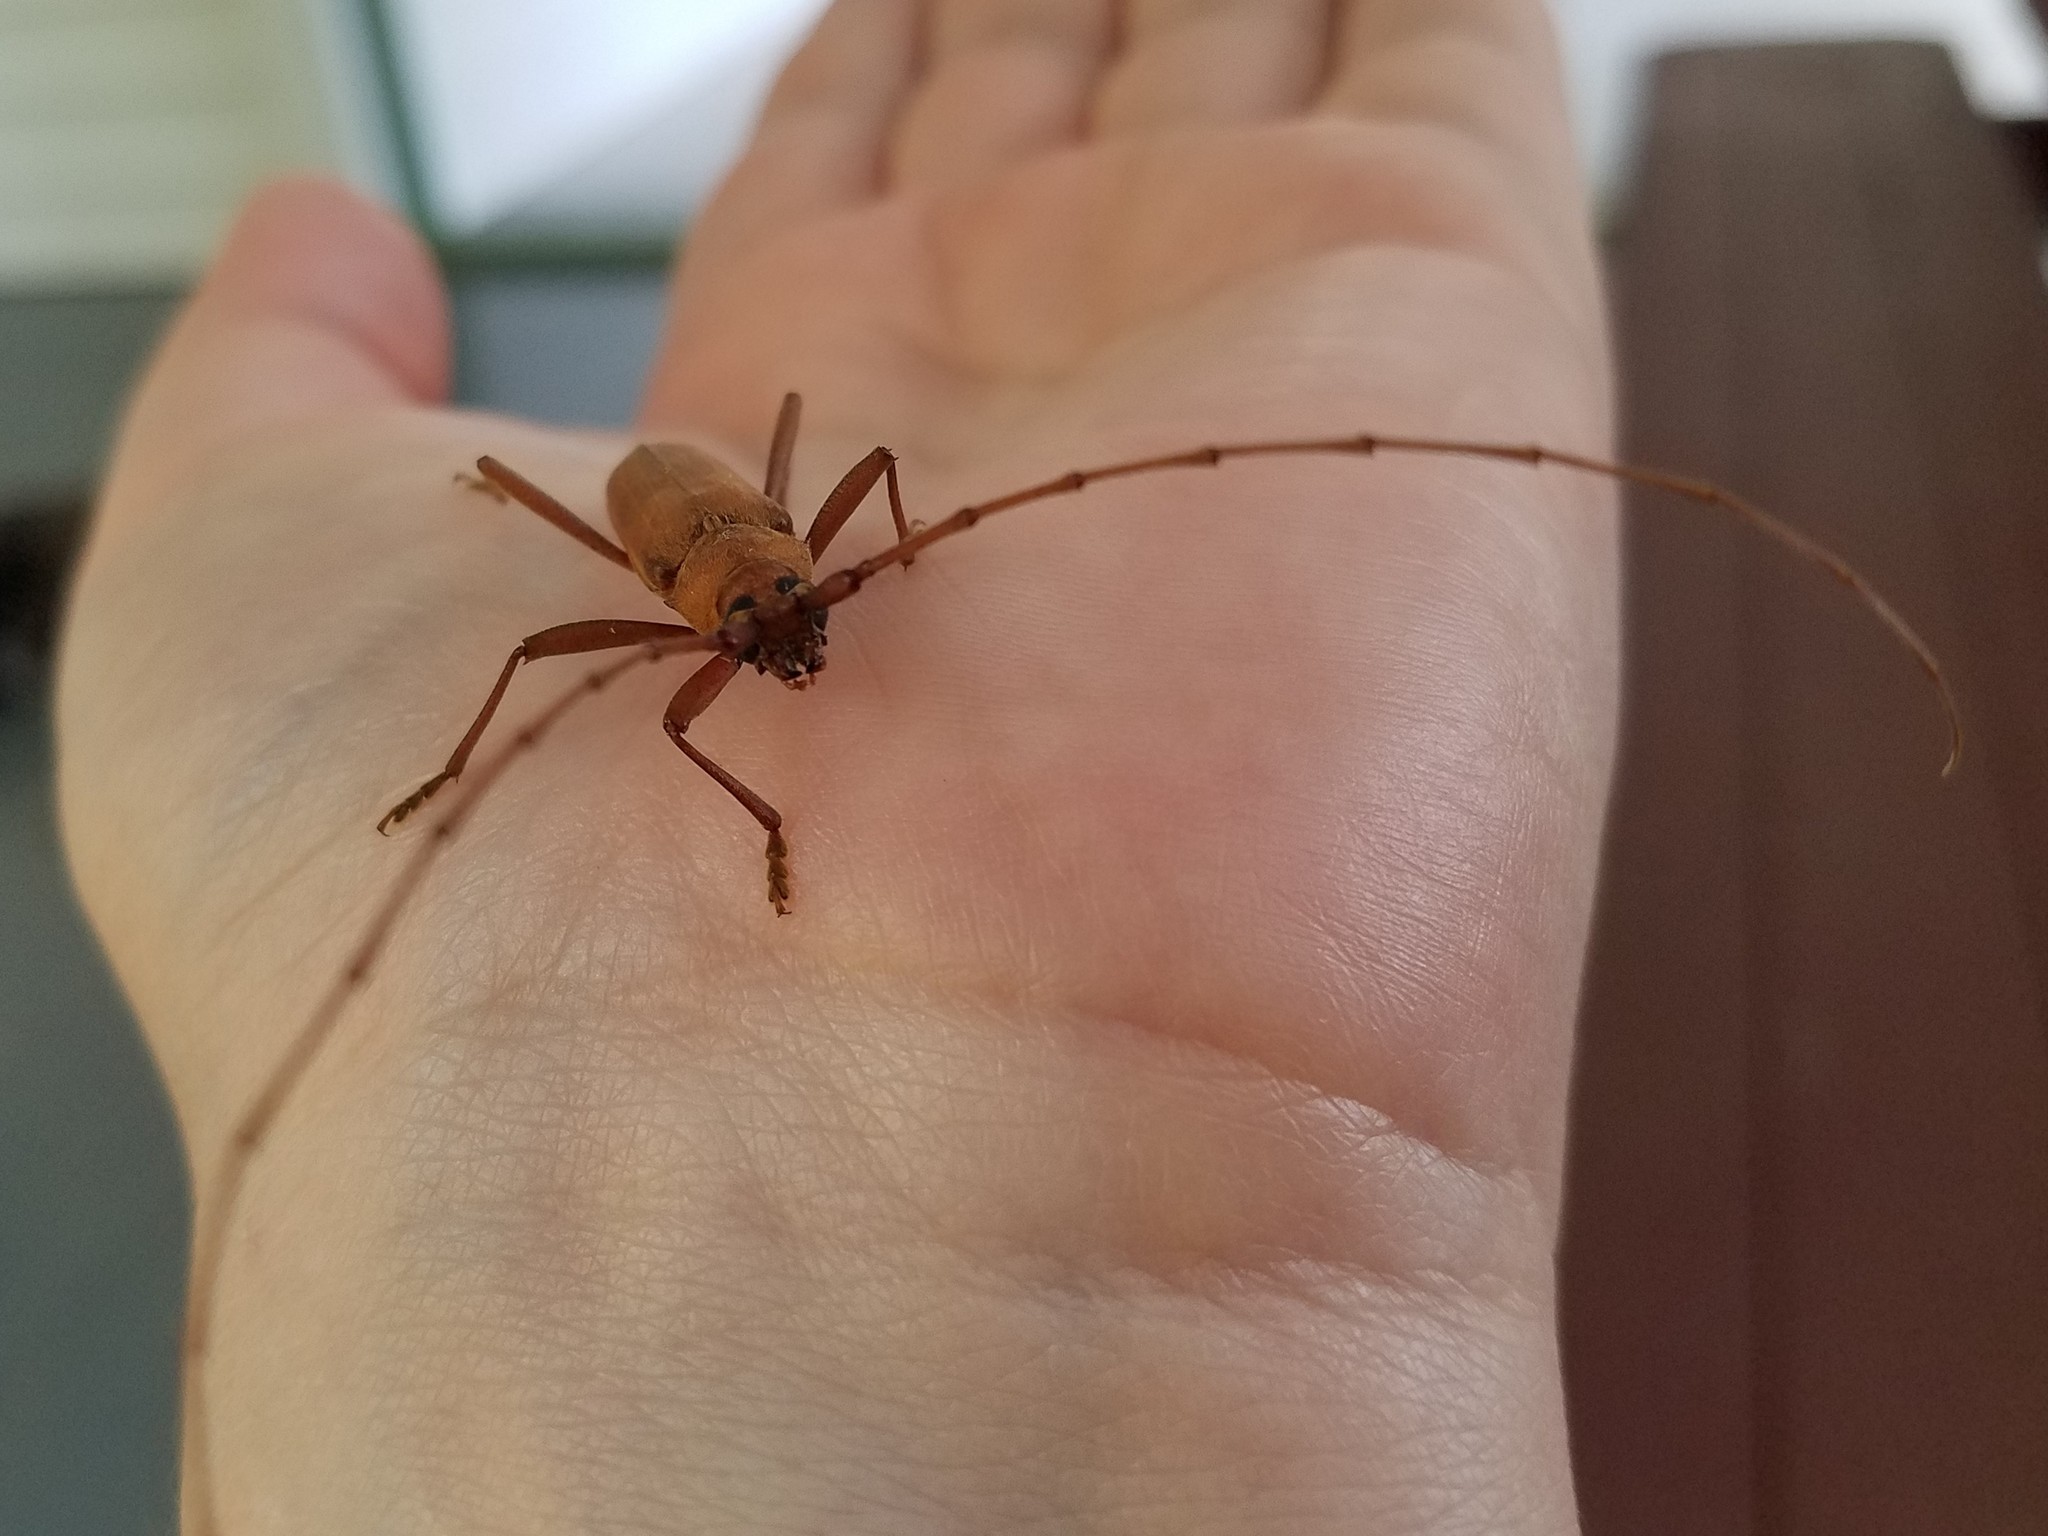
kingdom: Animalia
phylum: Arthropoda
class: Insecta
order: Coleoptera
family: Cerambycidae
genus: Knulliana
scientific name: Knulliana cincta
